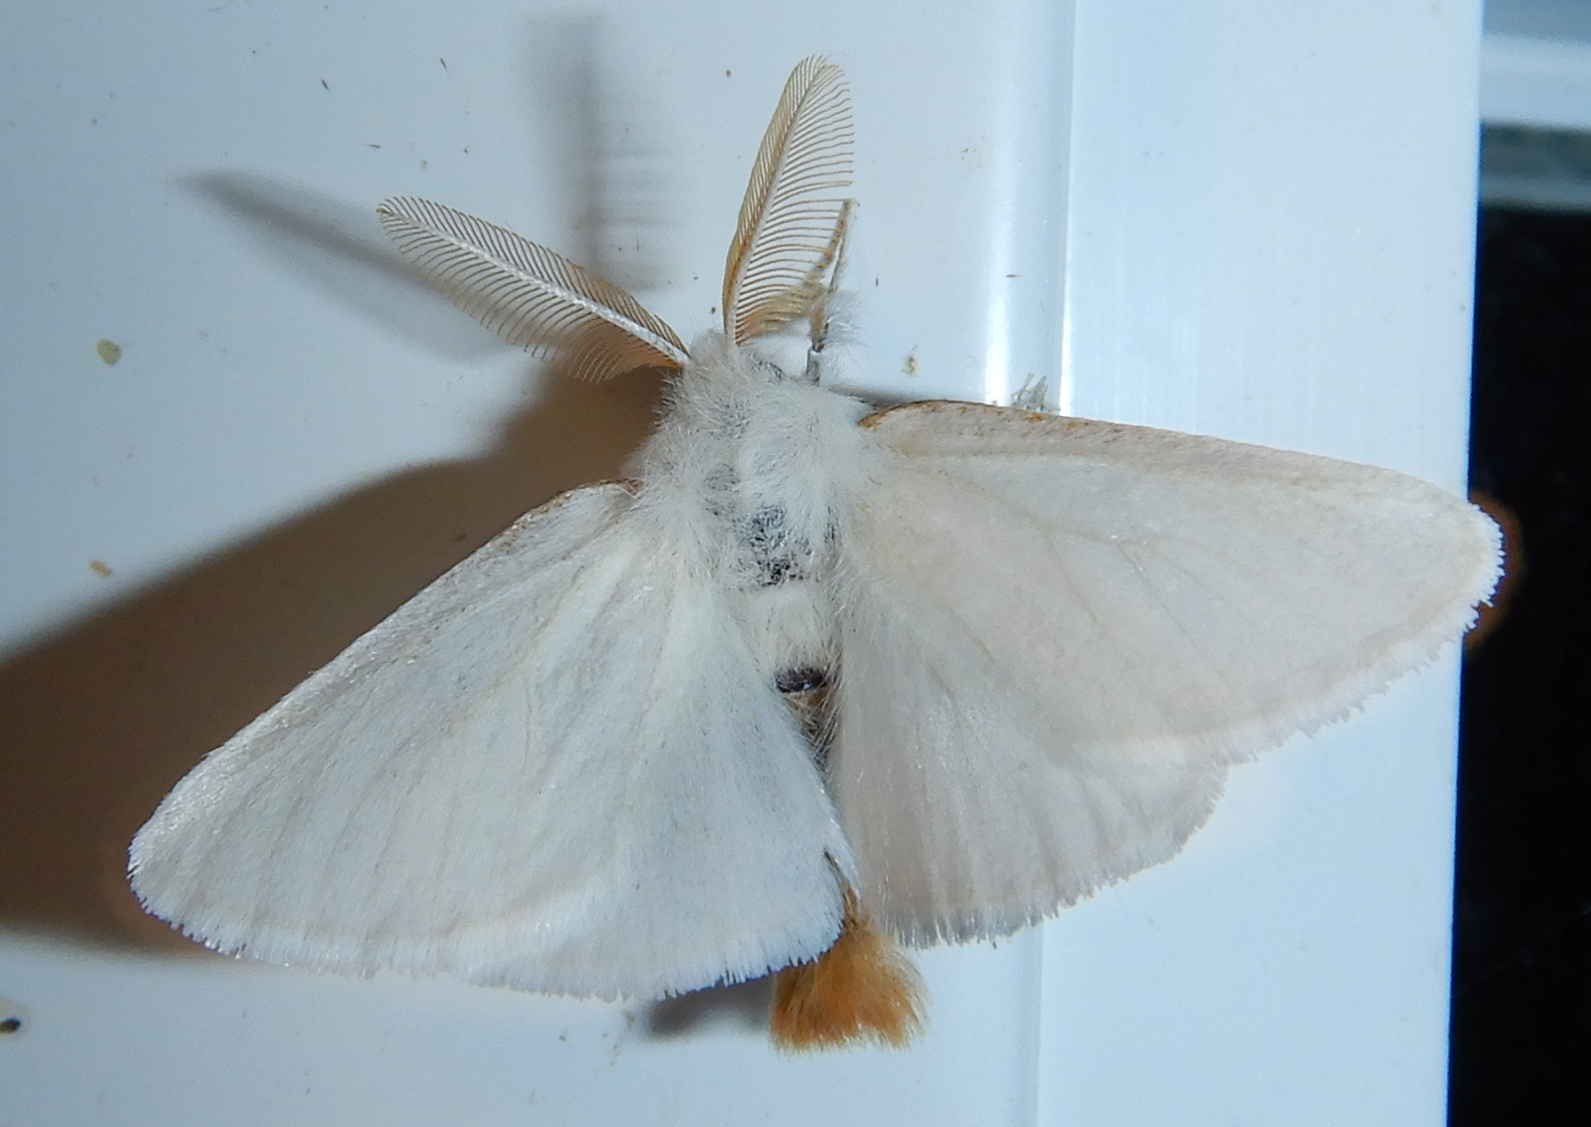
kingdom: Animalia
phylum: Arthropoda
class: Insecta
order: Lepidoptera
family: Erebidae
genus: Euproctis
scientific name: Euproctis chrysorrhoea
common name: Brown-tail
